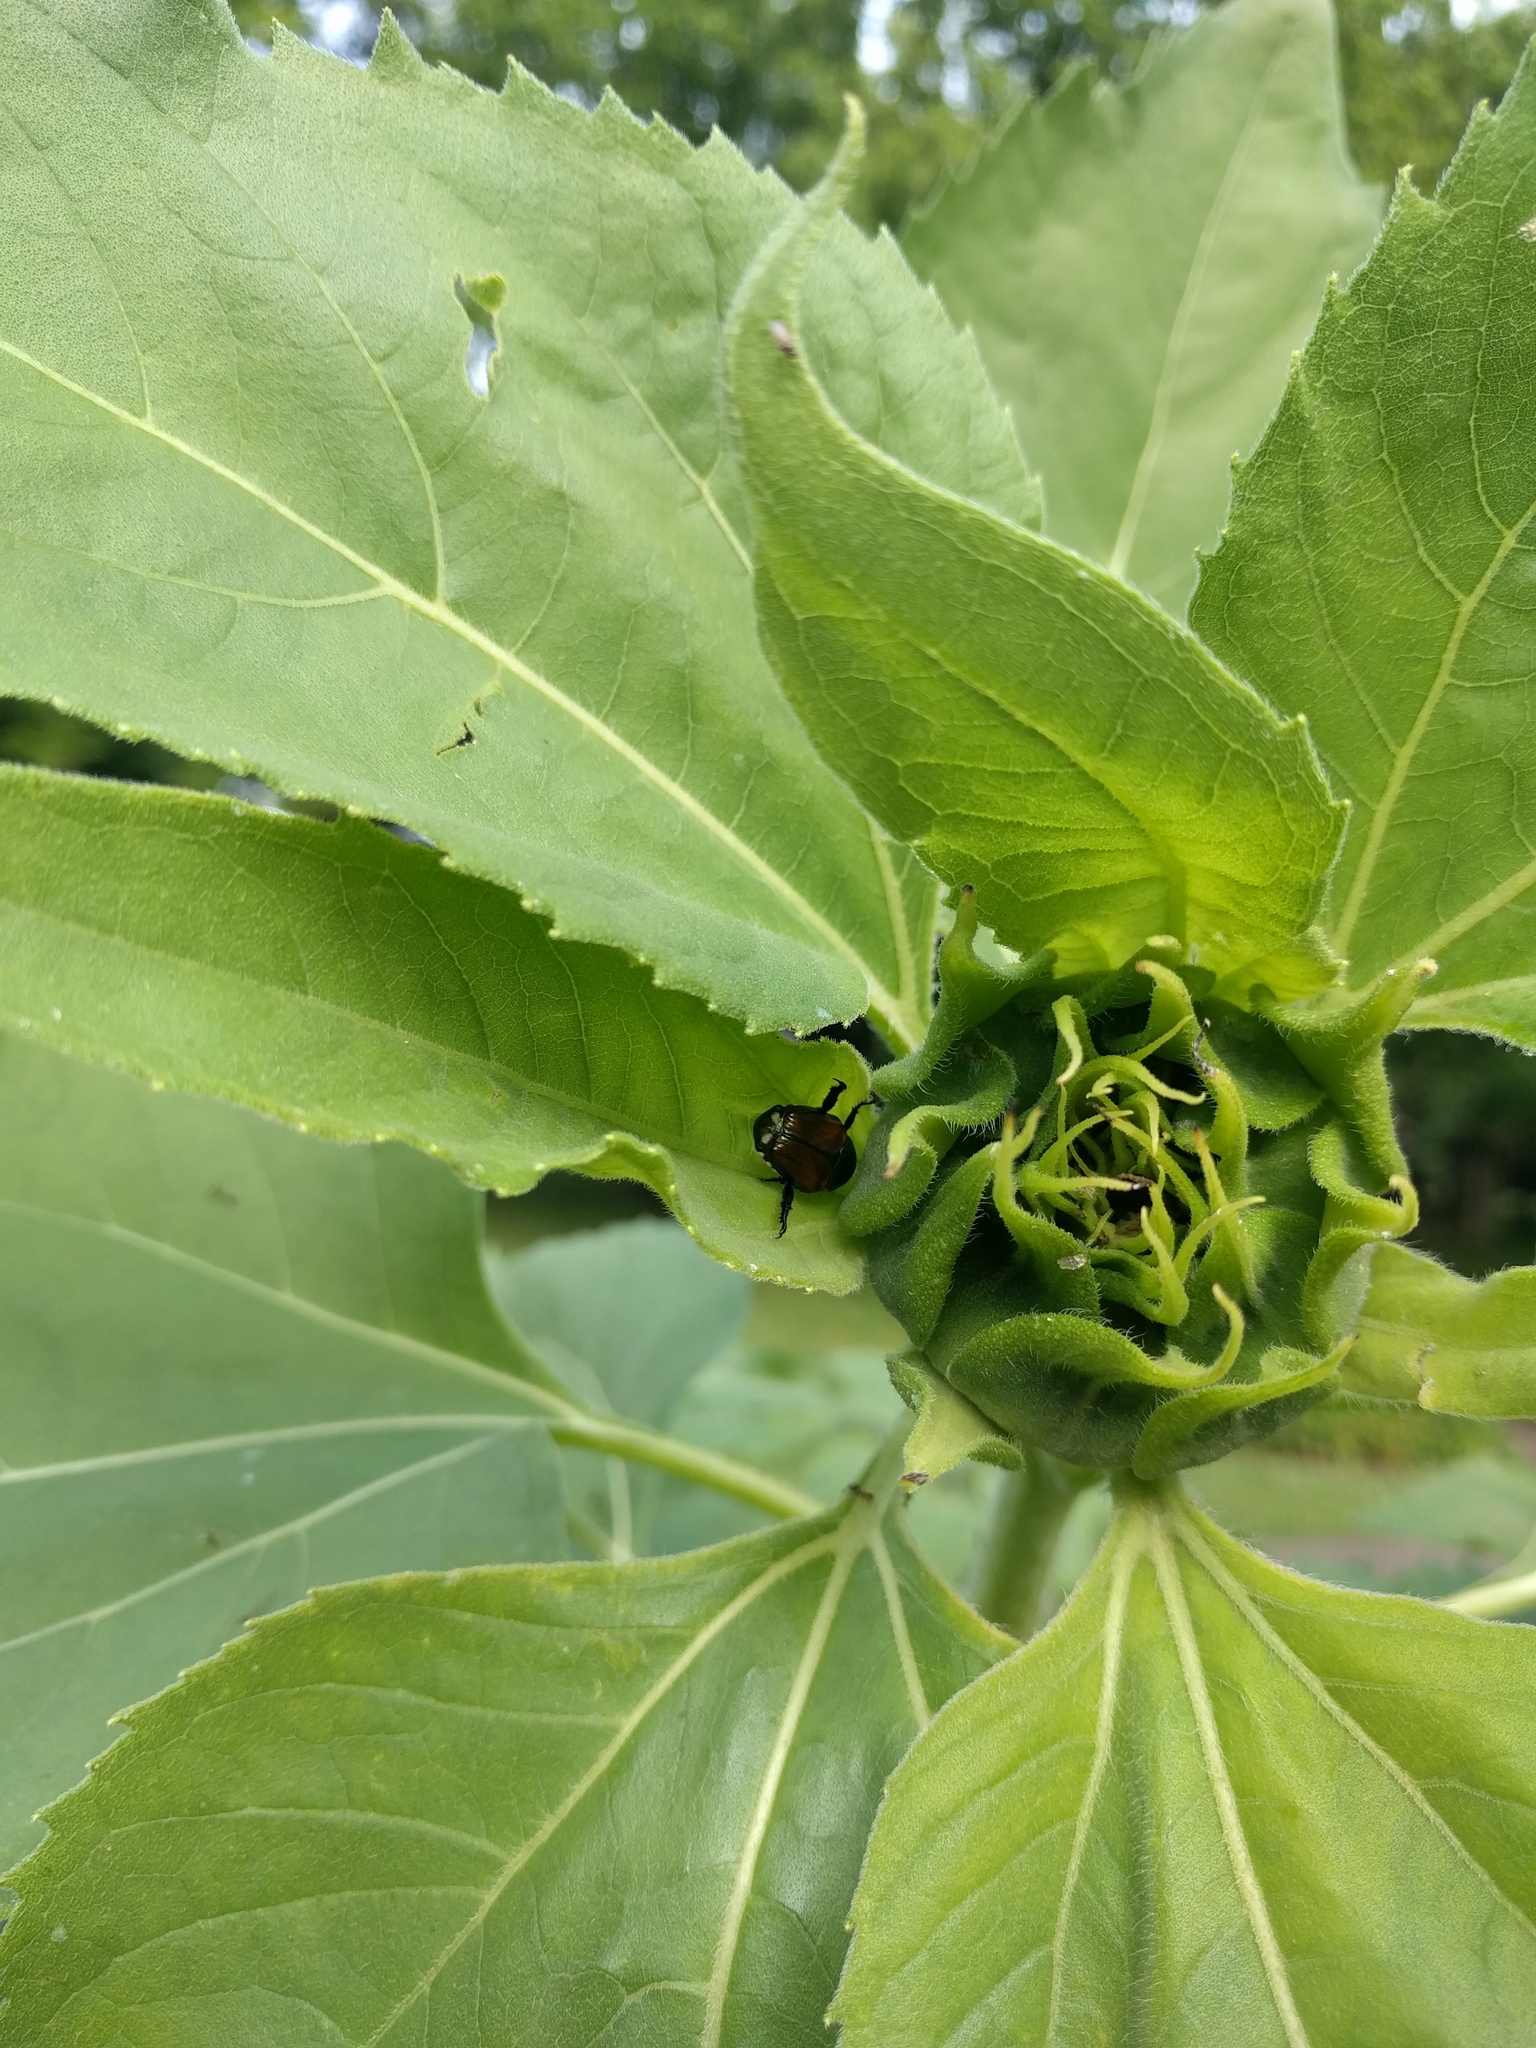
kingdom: Animalia
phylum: Arthropoda
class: Insecta
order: Coleoptera
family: Scarabaeidae
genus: Popillia
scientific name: Popillia japonica
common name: Japanese beetle
